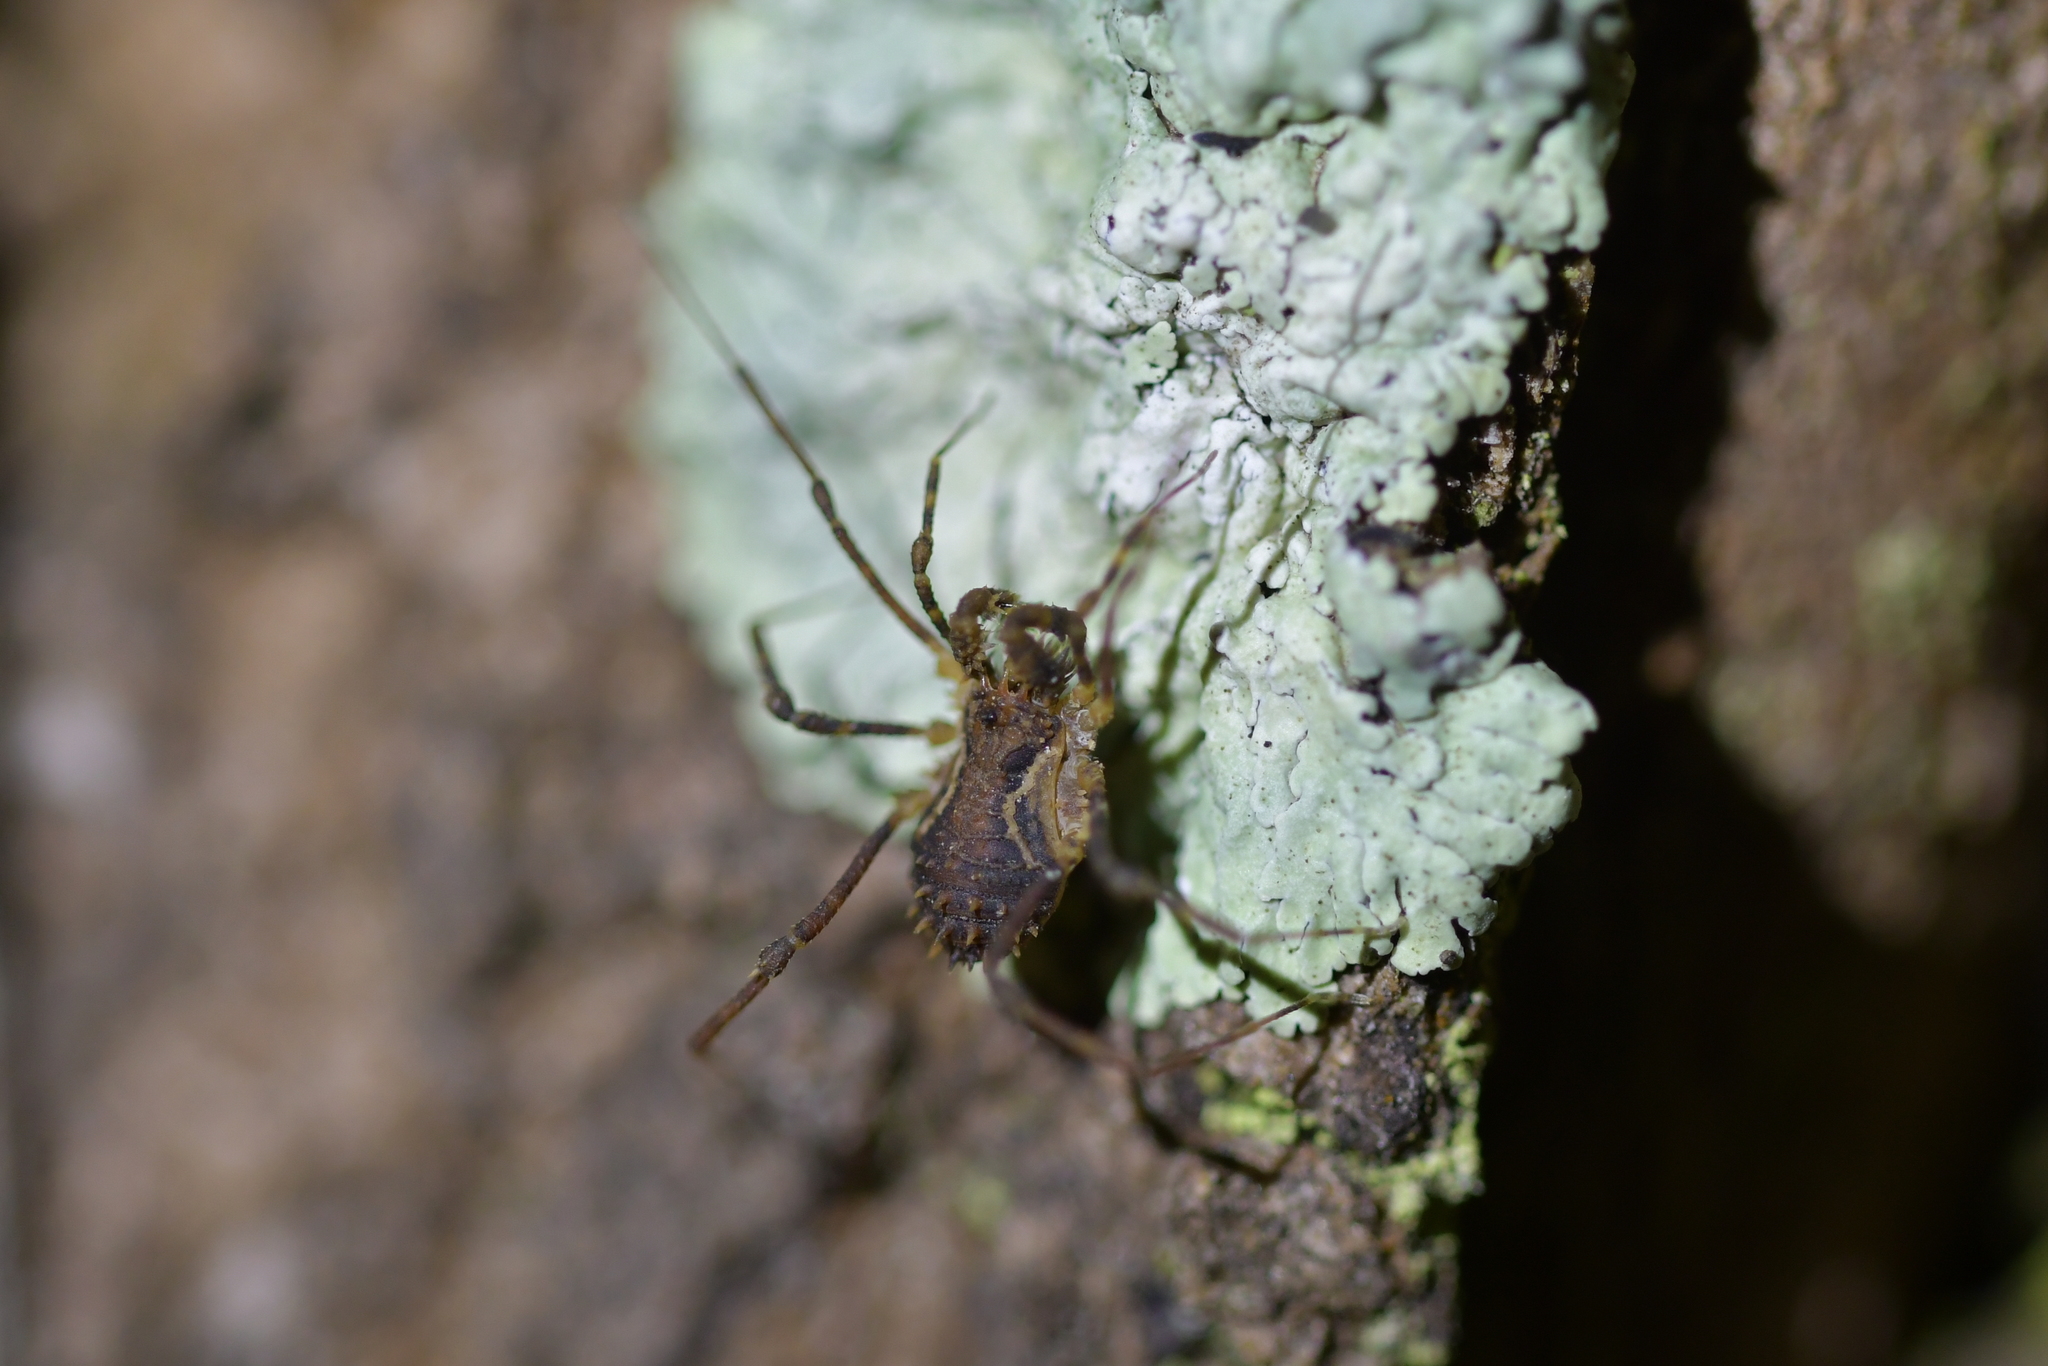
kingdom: Animalia
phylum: Arthropoda
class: Arachnida
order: Opiliones
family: Triaenonychidae
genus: Algidia
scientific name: Algidia chiltoni
